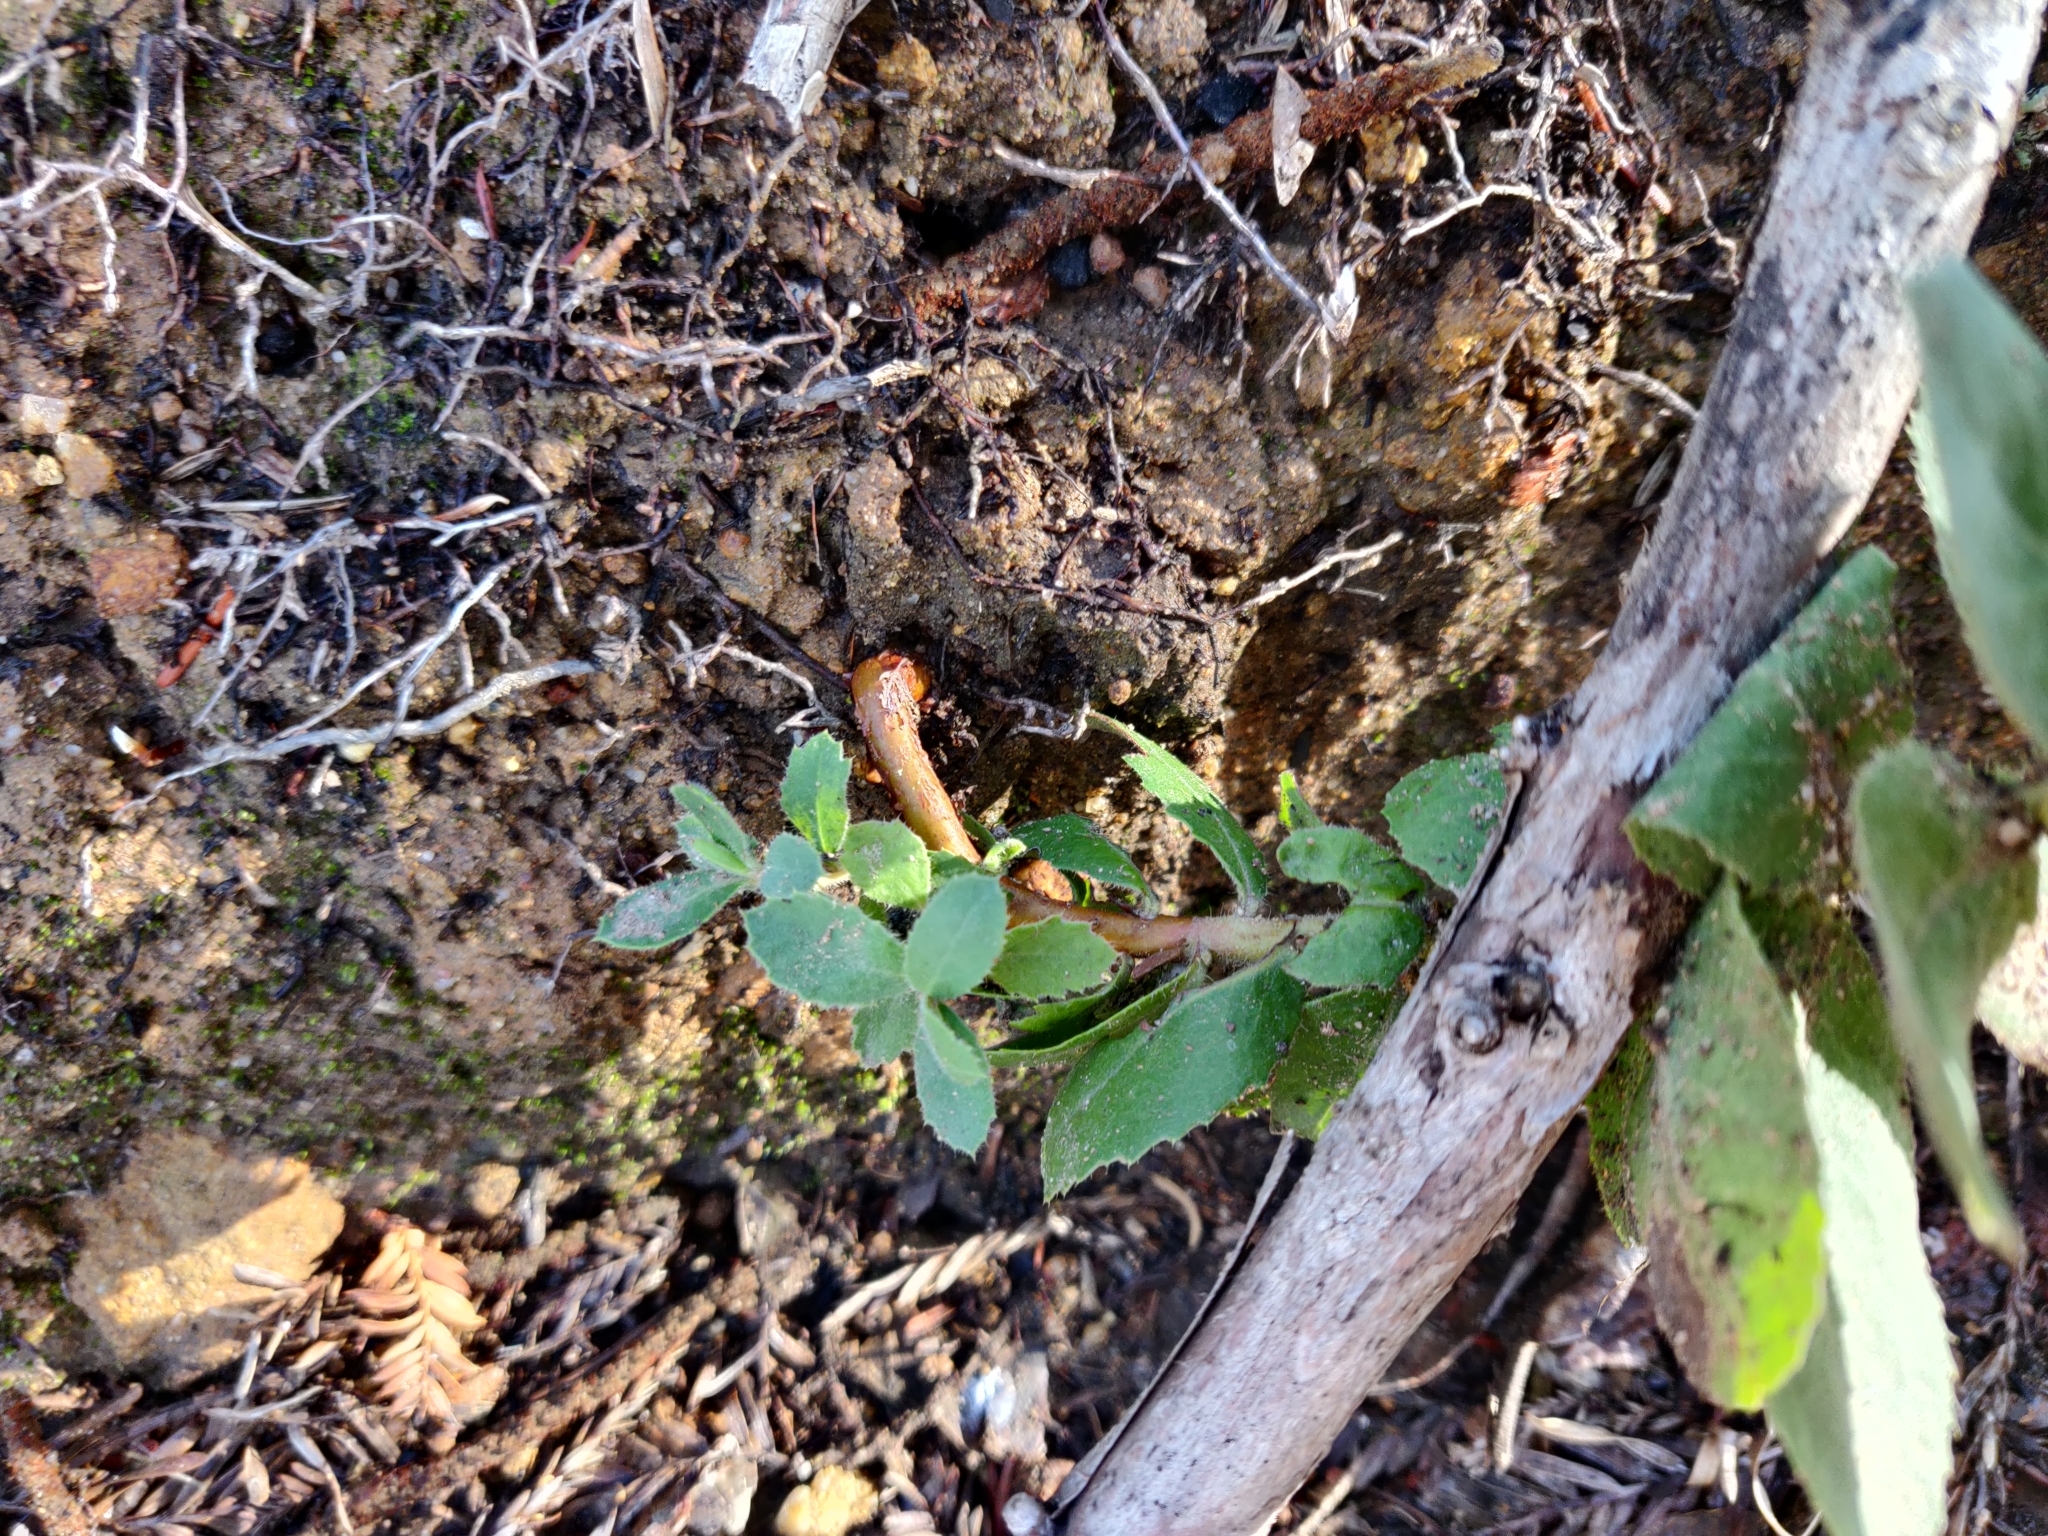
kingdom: Plantae
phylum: Tracheophyta
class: Magnoliopsida
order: Ericales
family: Ericaceae
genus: Arctostaphylos
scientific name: Arctostaphylos andersonii
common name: Santa cruz manzanita
